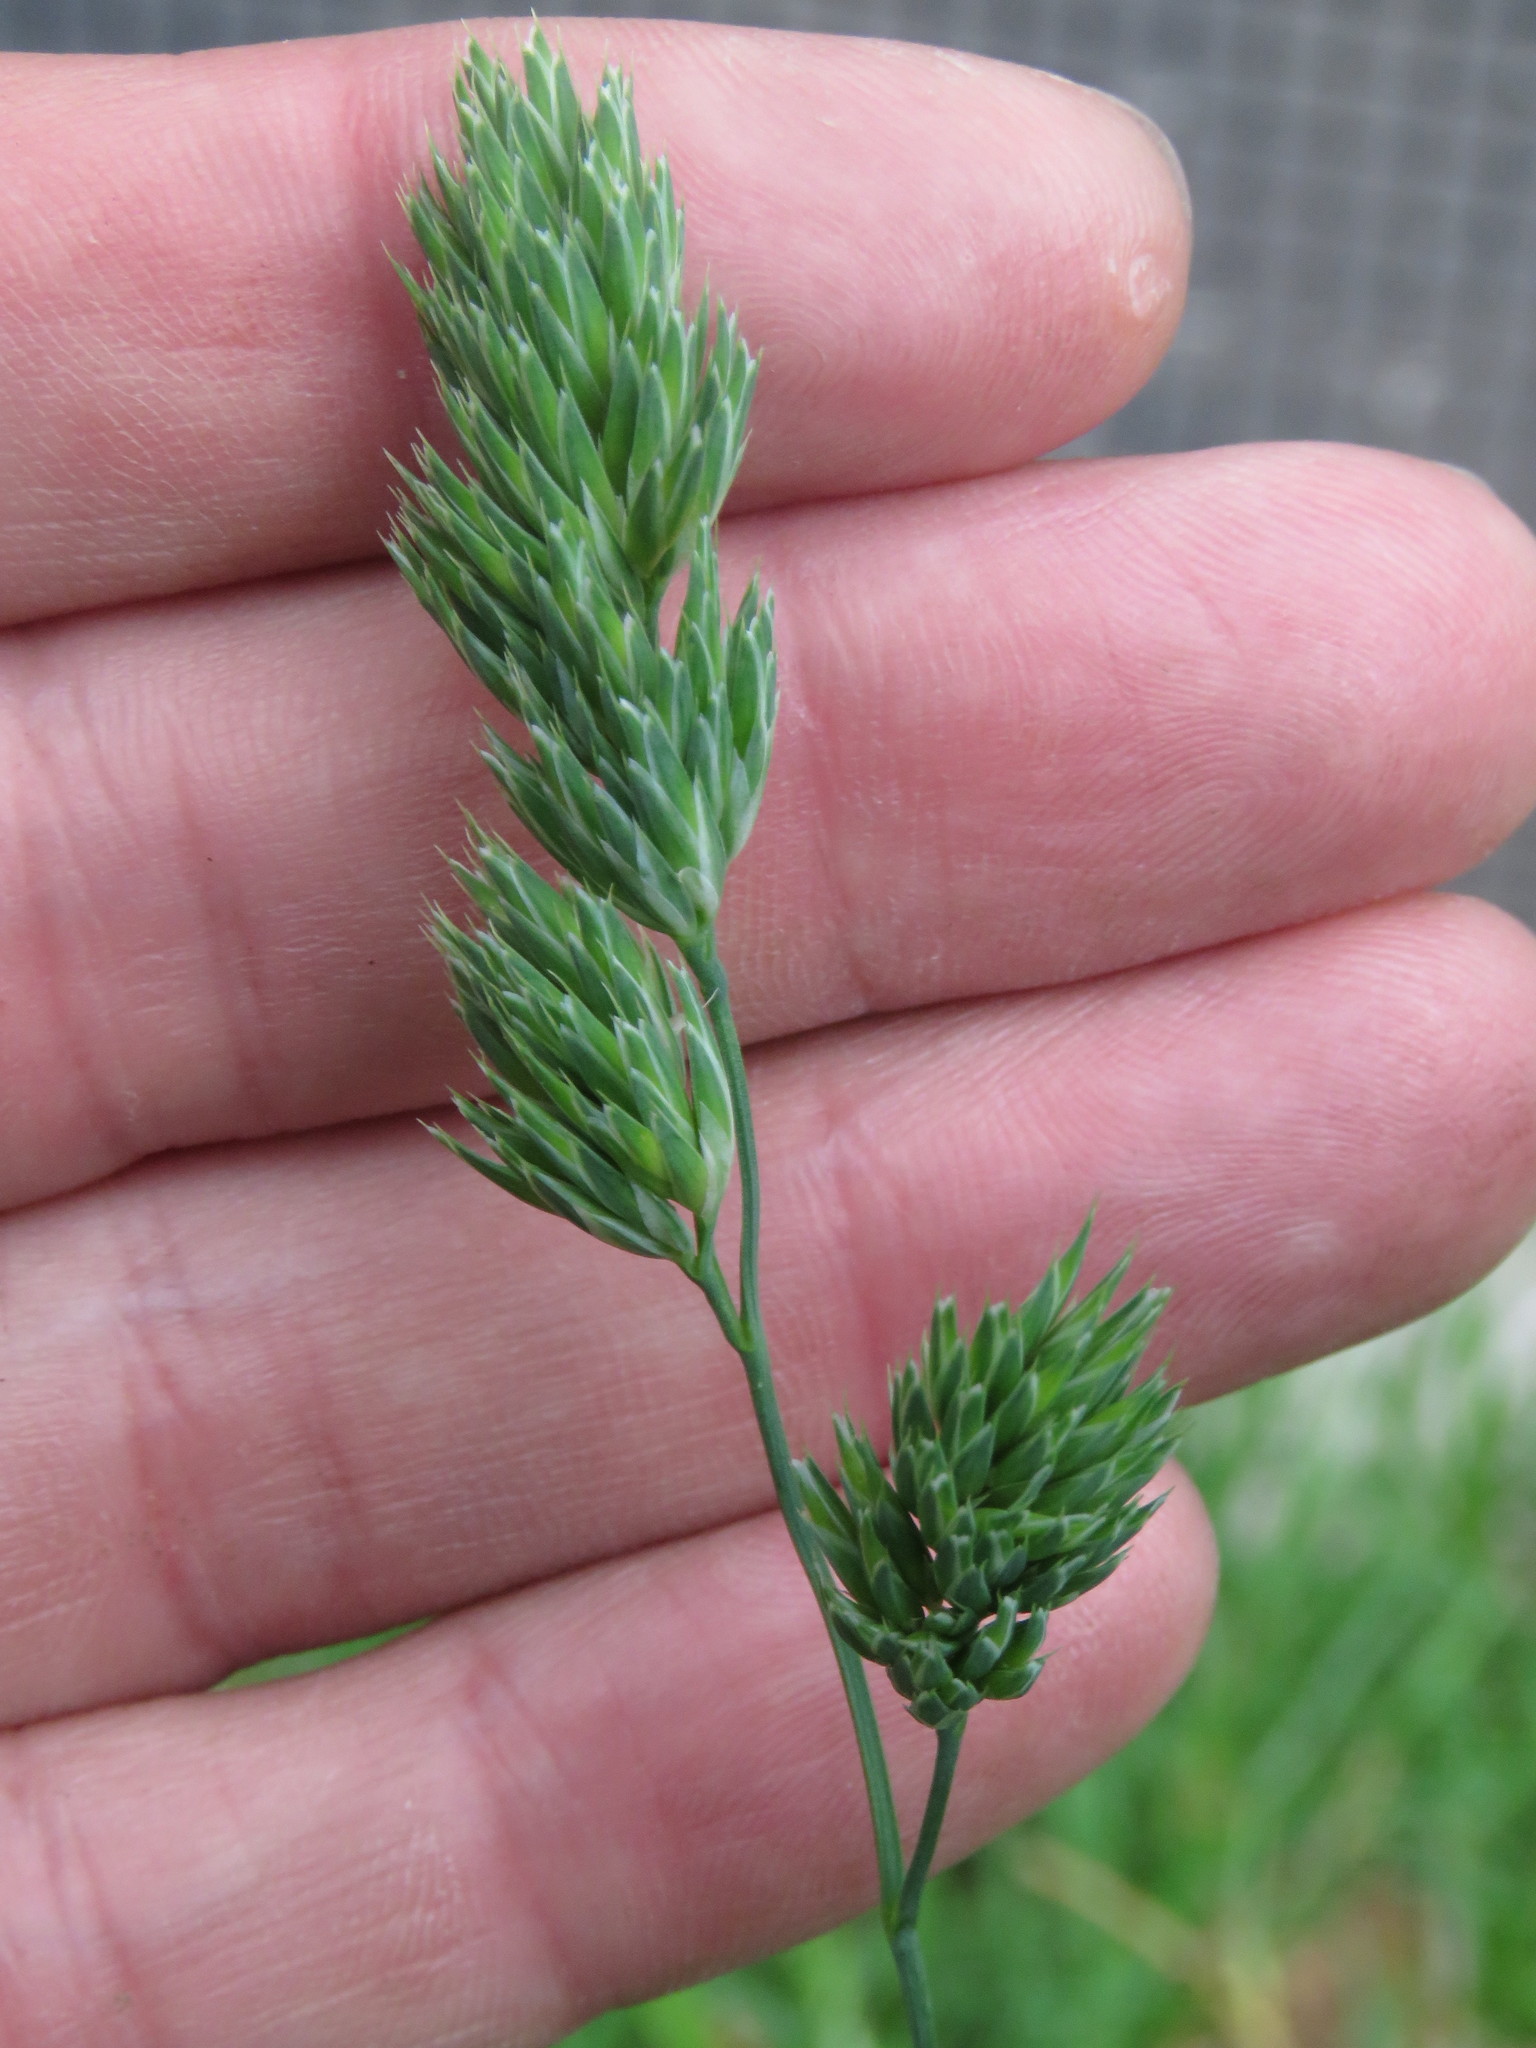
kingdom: Plantae
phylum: Tracheophyta
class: Liliopsida
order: Poales
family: Poaceae
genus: Dactylis
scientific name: Dactylis glomerata
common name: Orchardgrass
